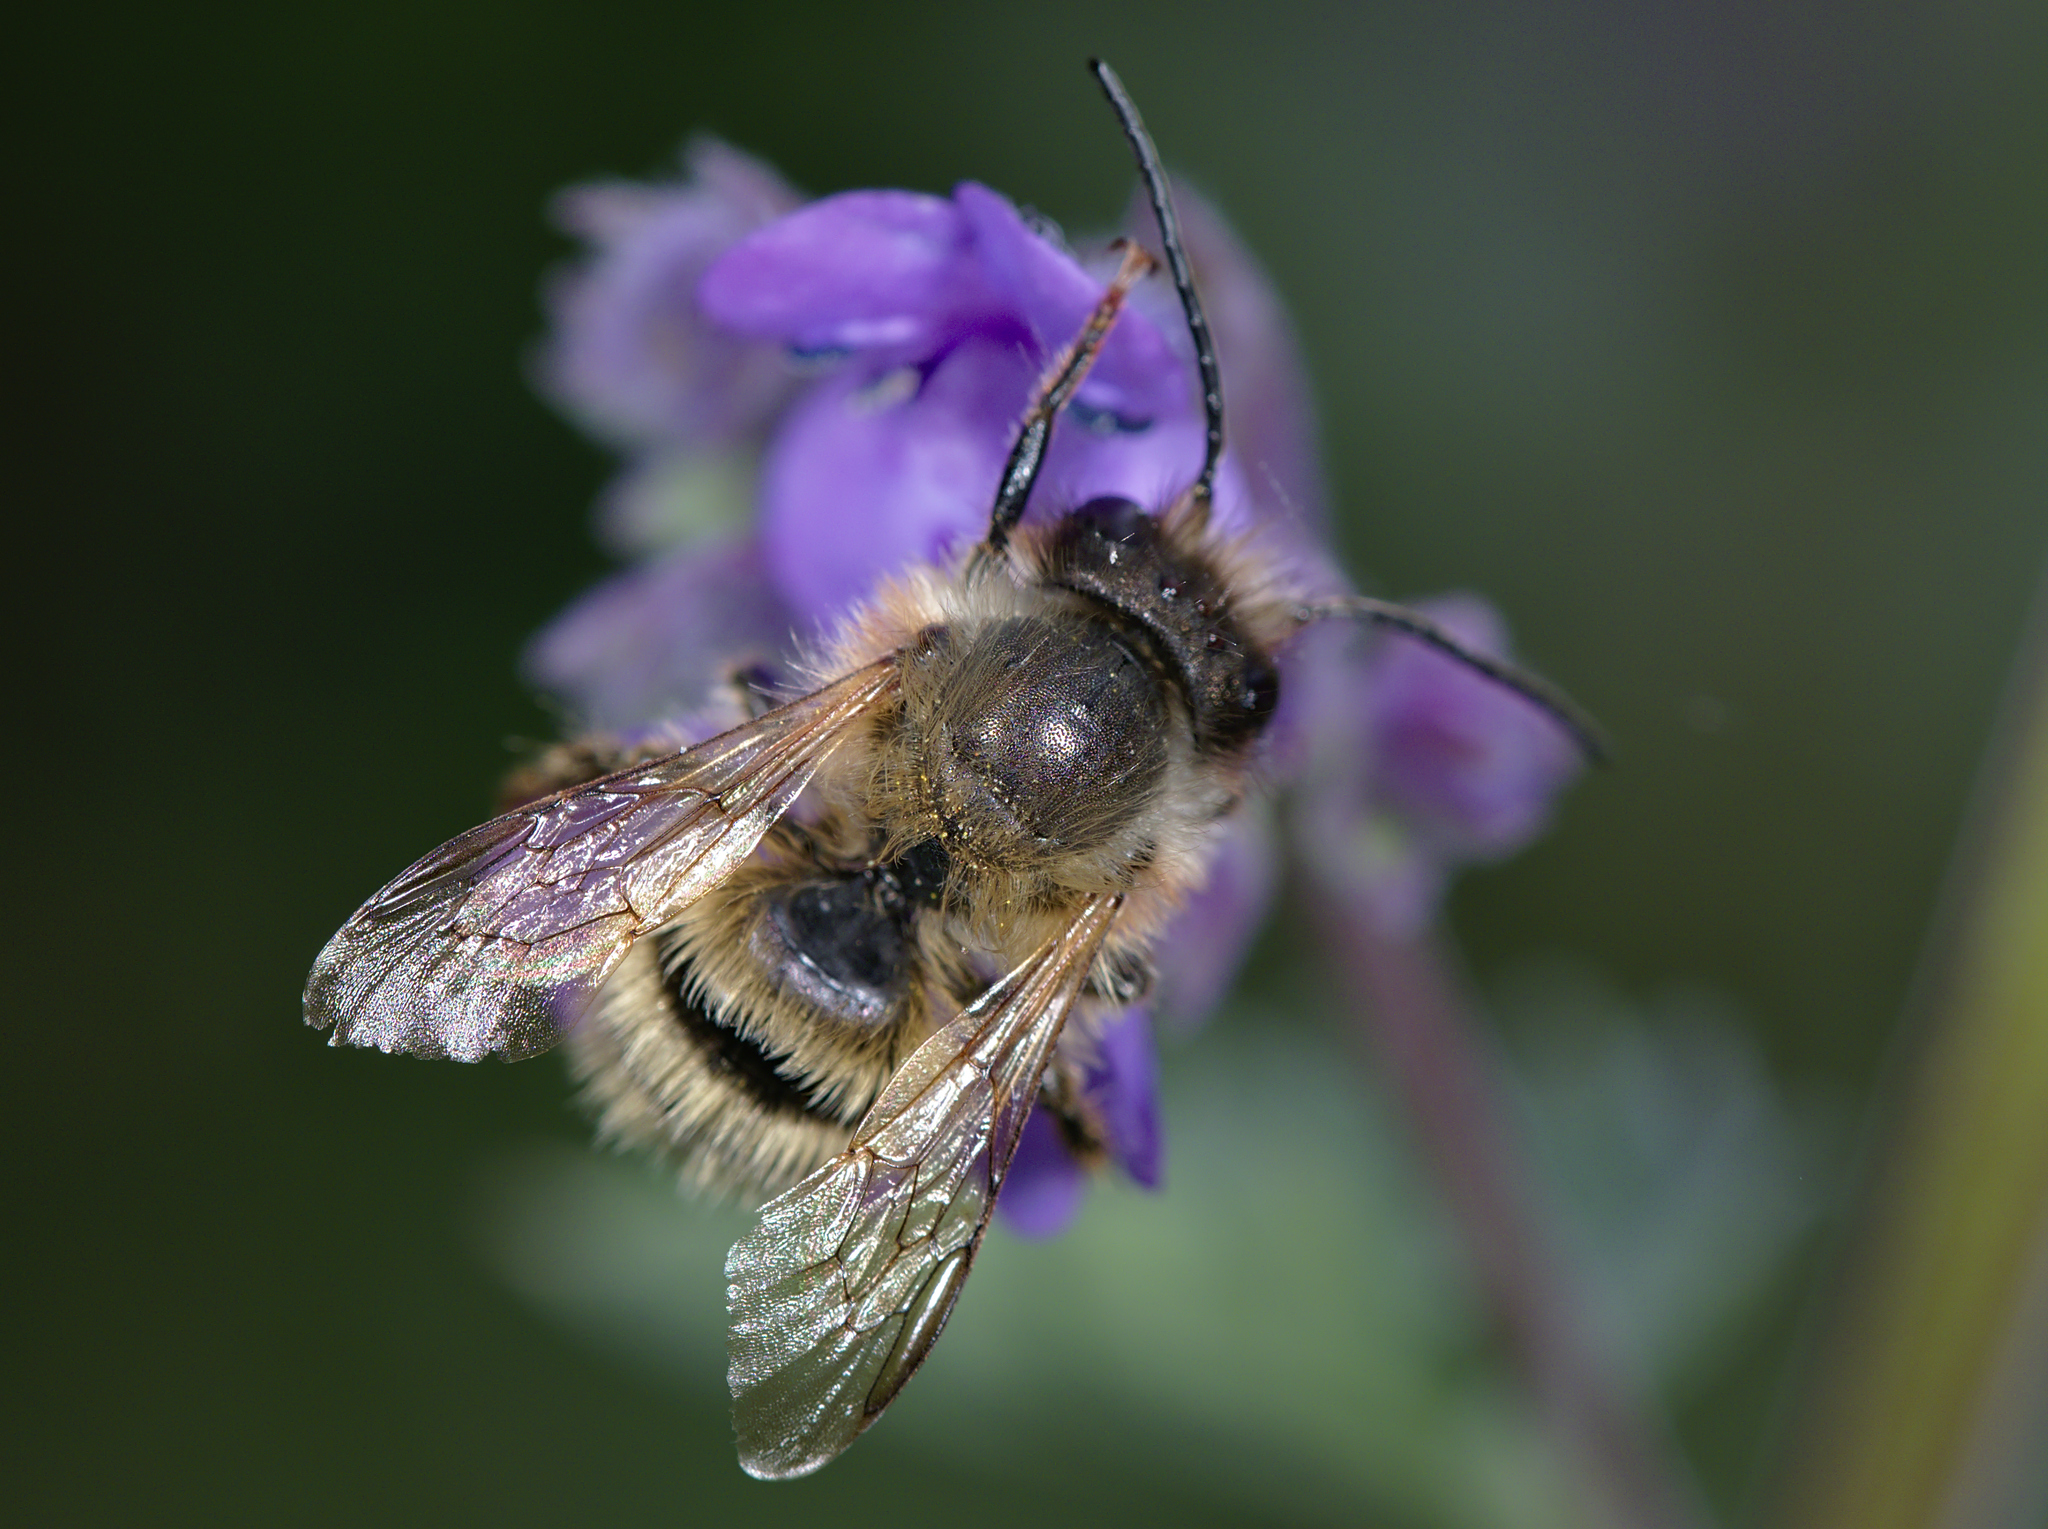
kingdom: Animalia
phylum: Arthropoda
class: Insecta
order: Hymenoptera
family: Megachilidae
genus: Osmia
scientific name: Osmia bicornis
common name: Red mason bee
